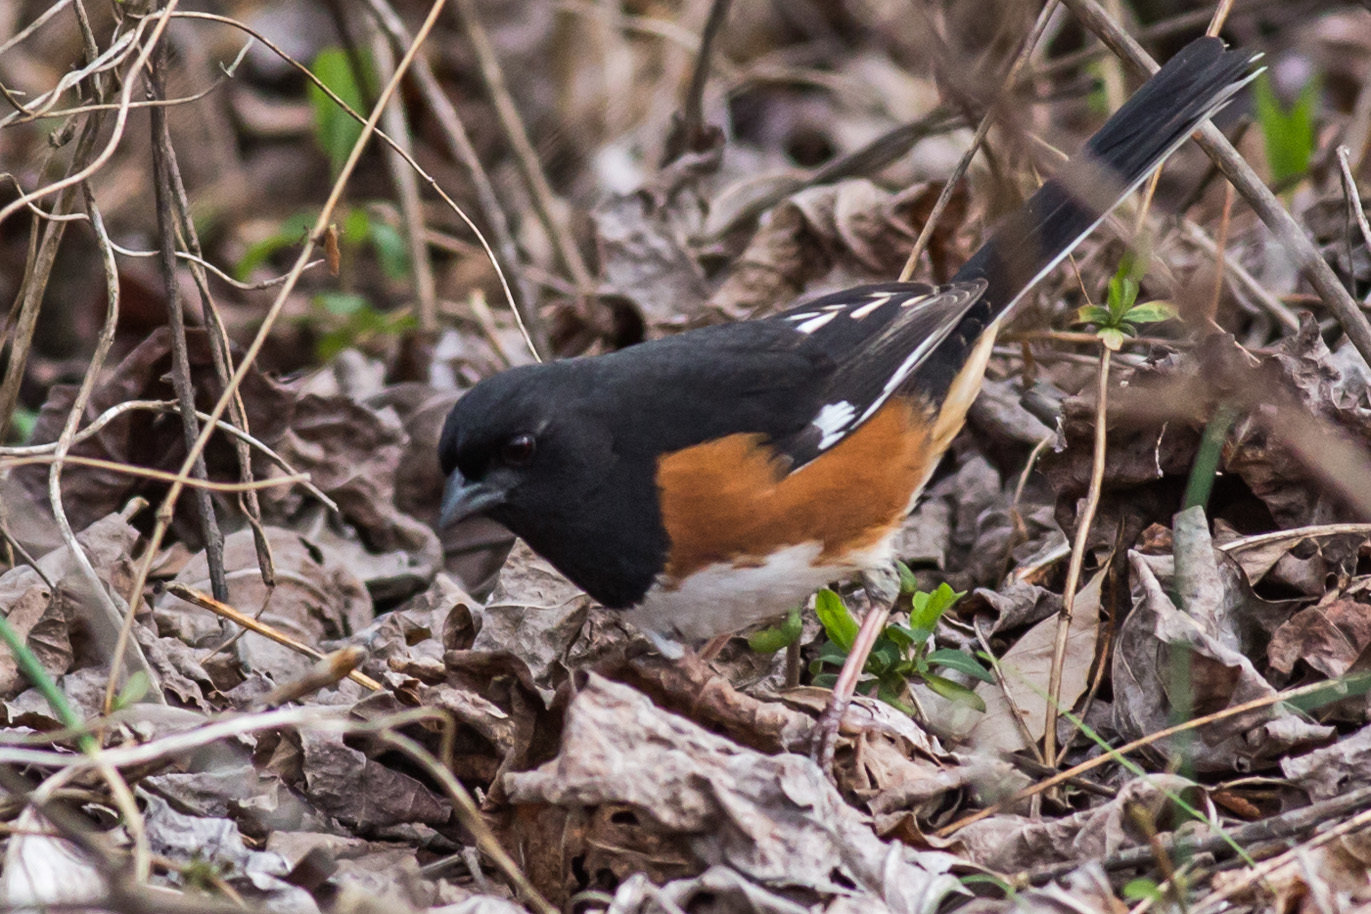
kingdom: Animalia
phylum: Chordata
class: Aves
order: Passeriformes
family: Passerellidae
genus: Pipilo
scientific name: Pipilo erythrophthalmus
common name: Eastern towhee
